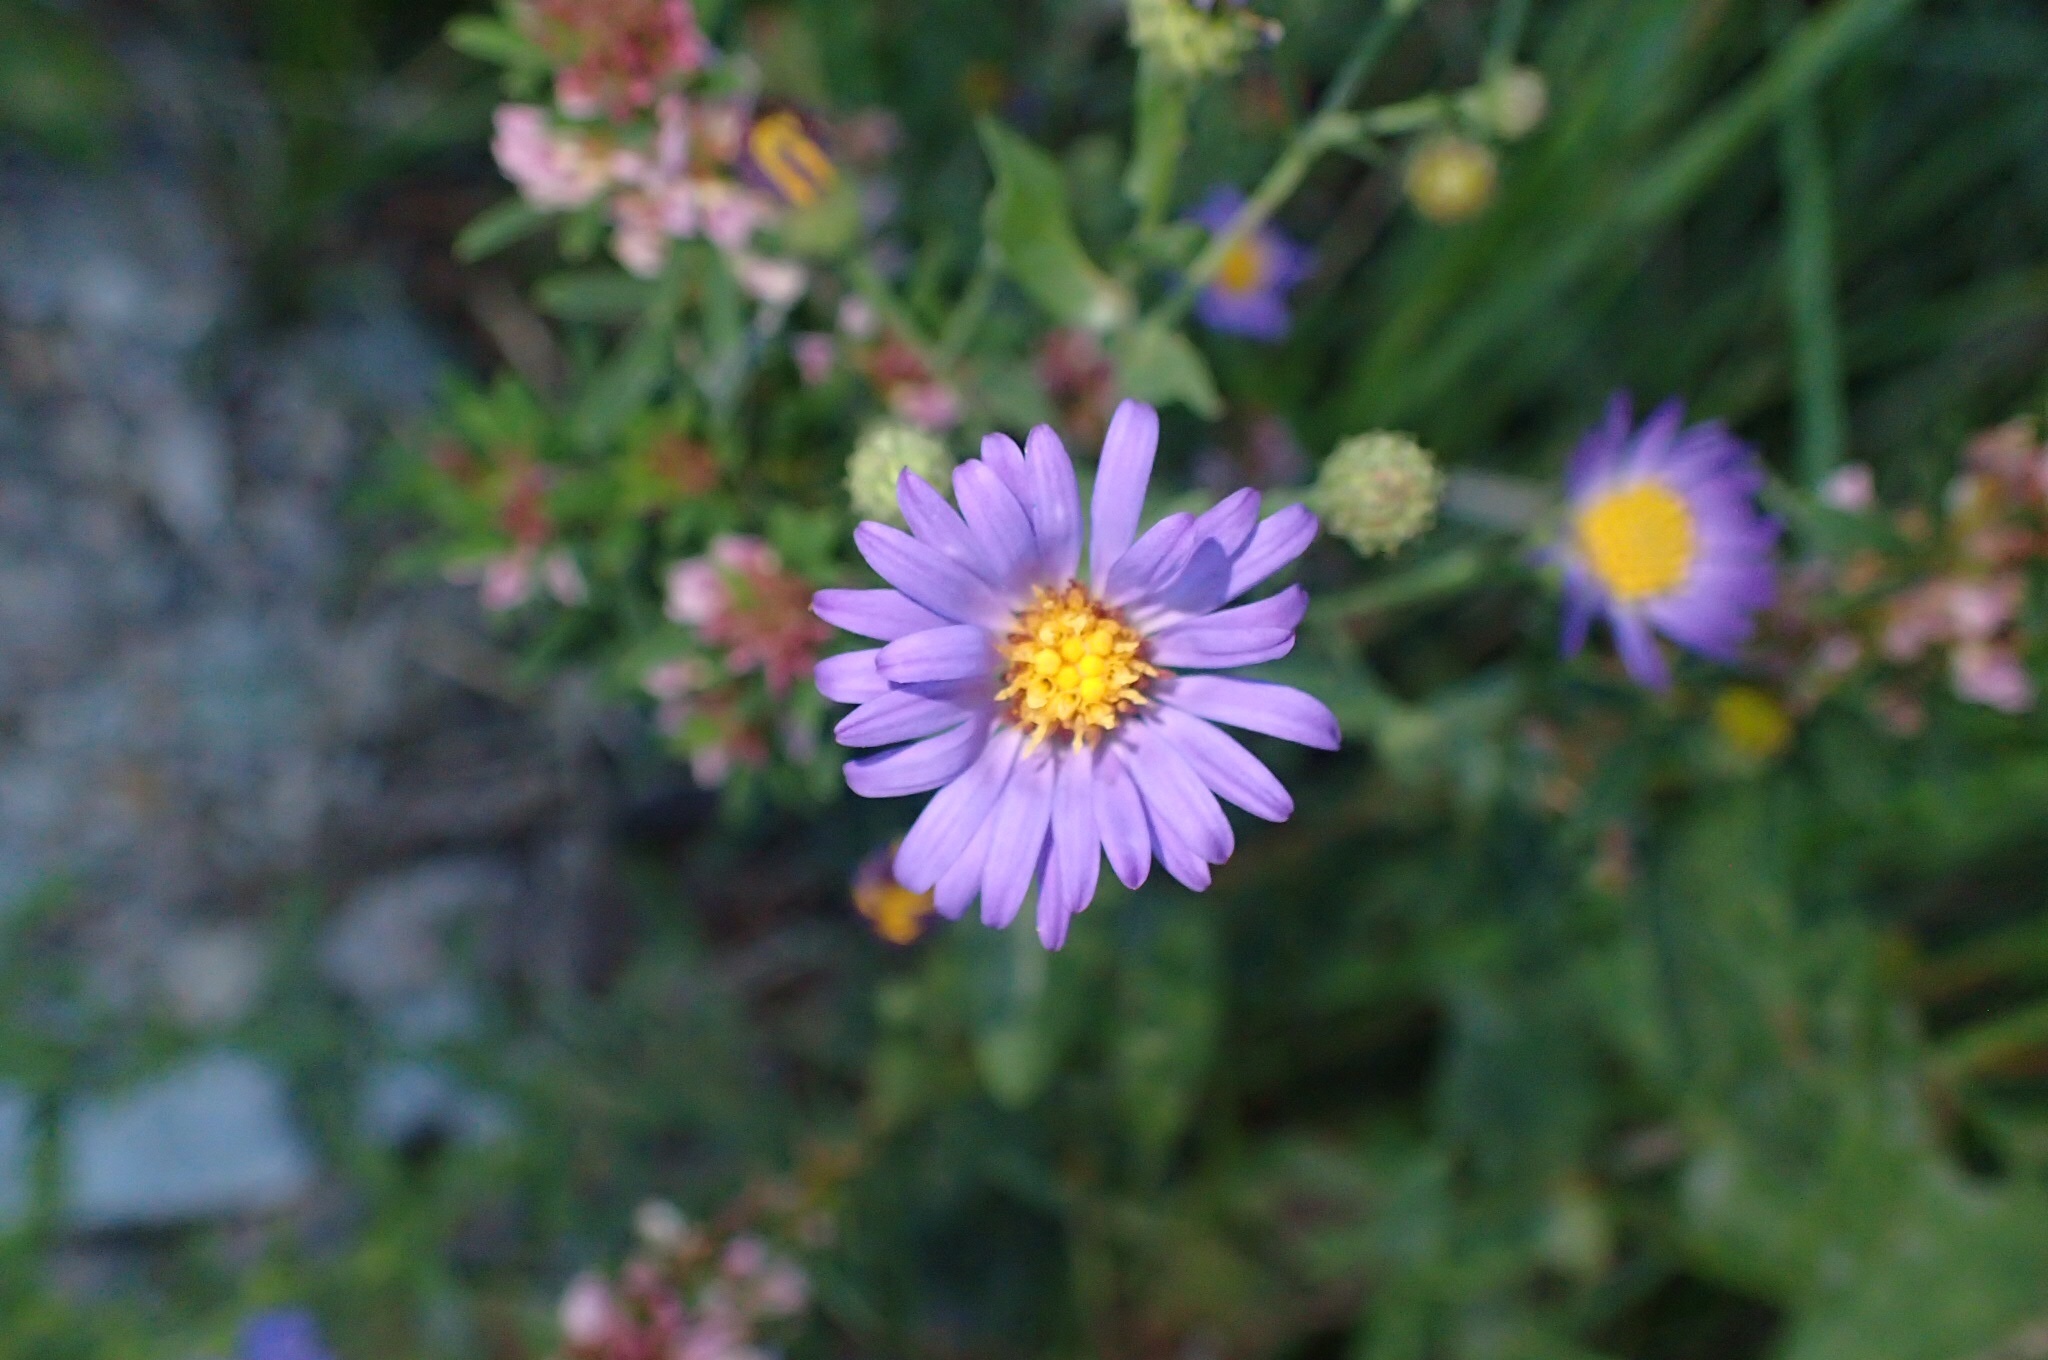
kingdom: Plantae
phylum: Tracheophyta
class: Magnoliopsida
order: Asterales
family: Asteraceae
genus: Symphyotrichum
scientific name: Symphyotrichum novae-angliae
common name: Michaelmas daisy
